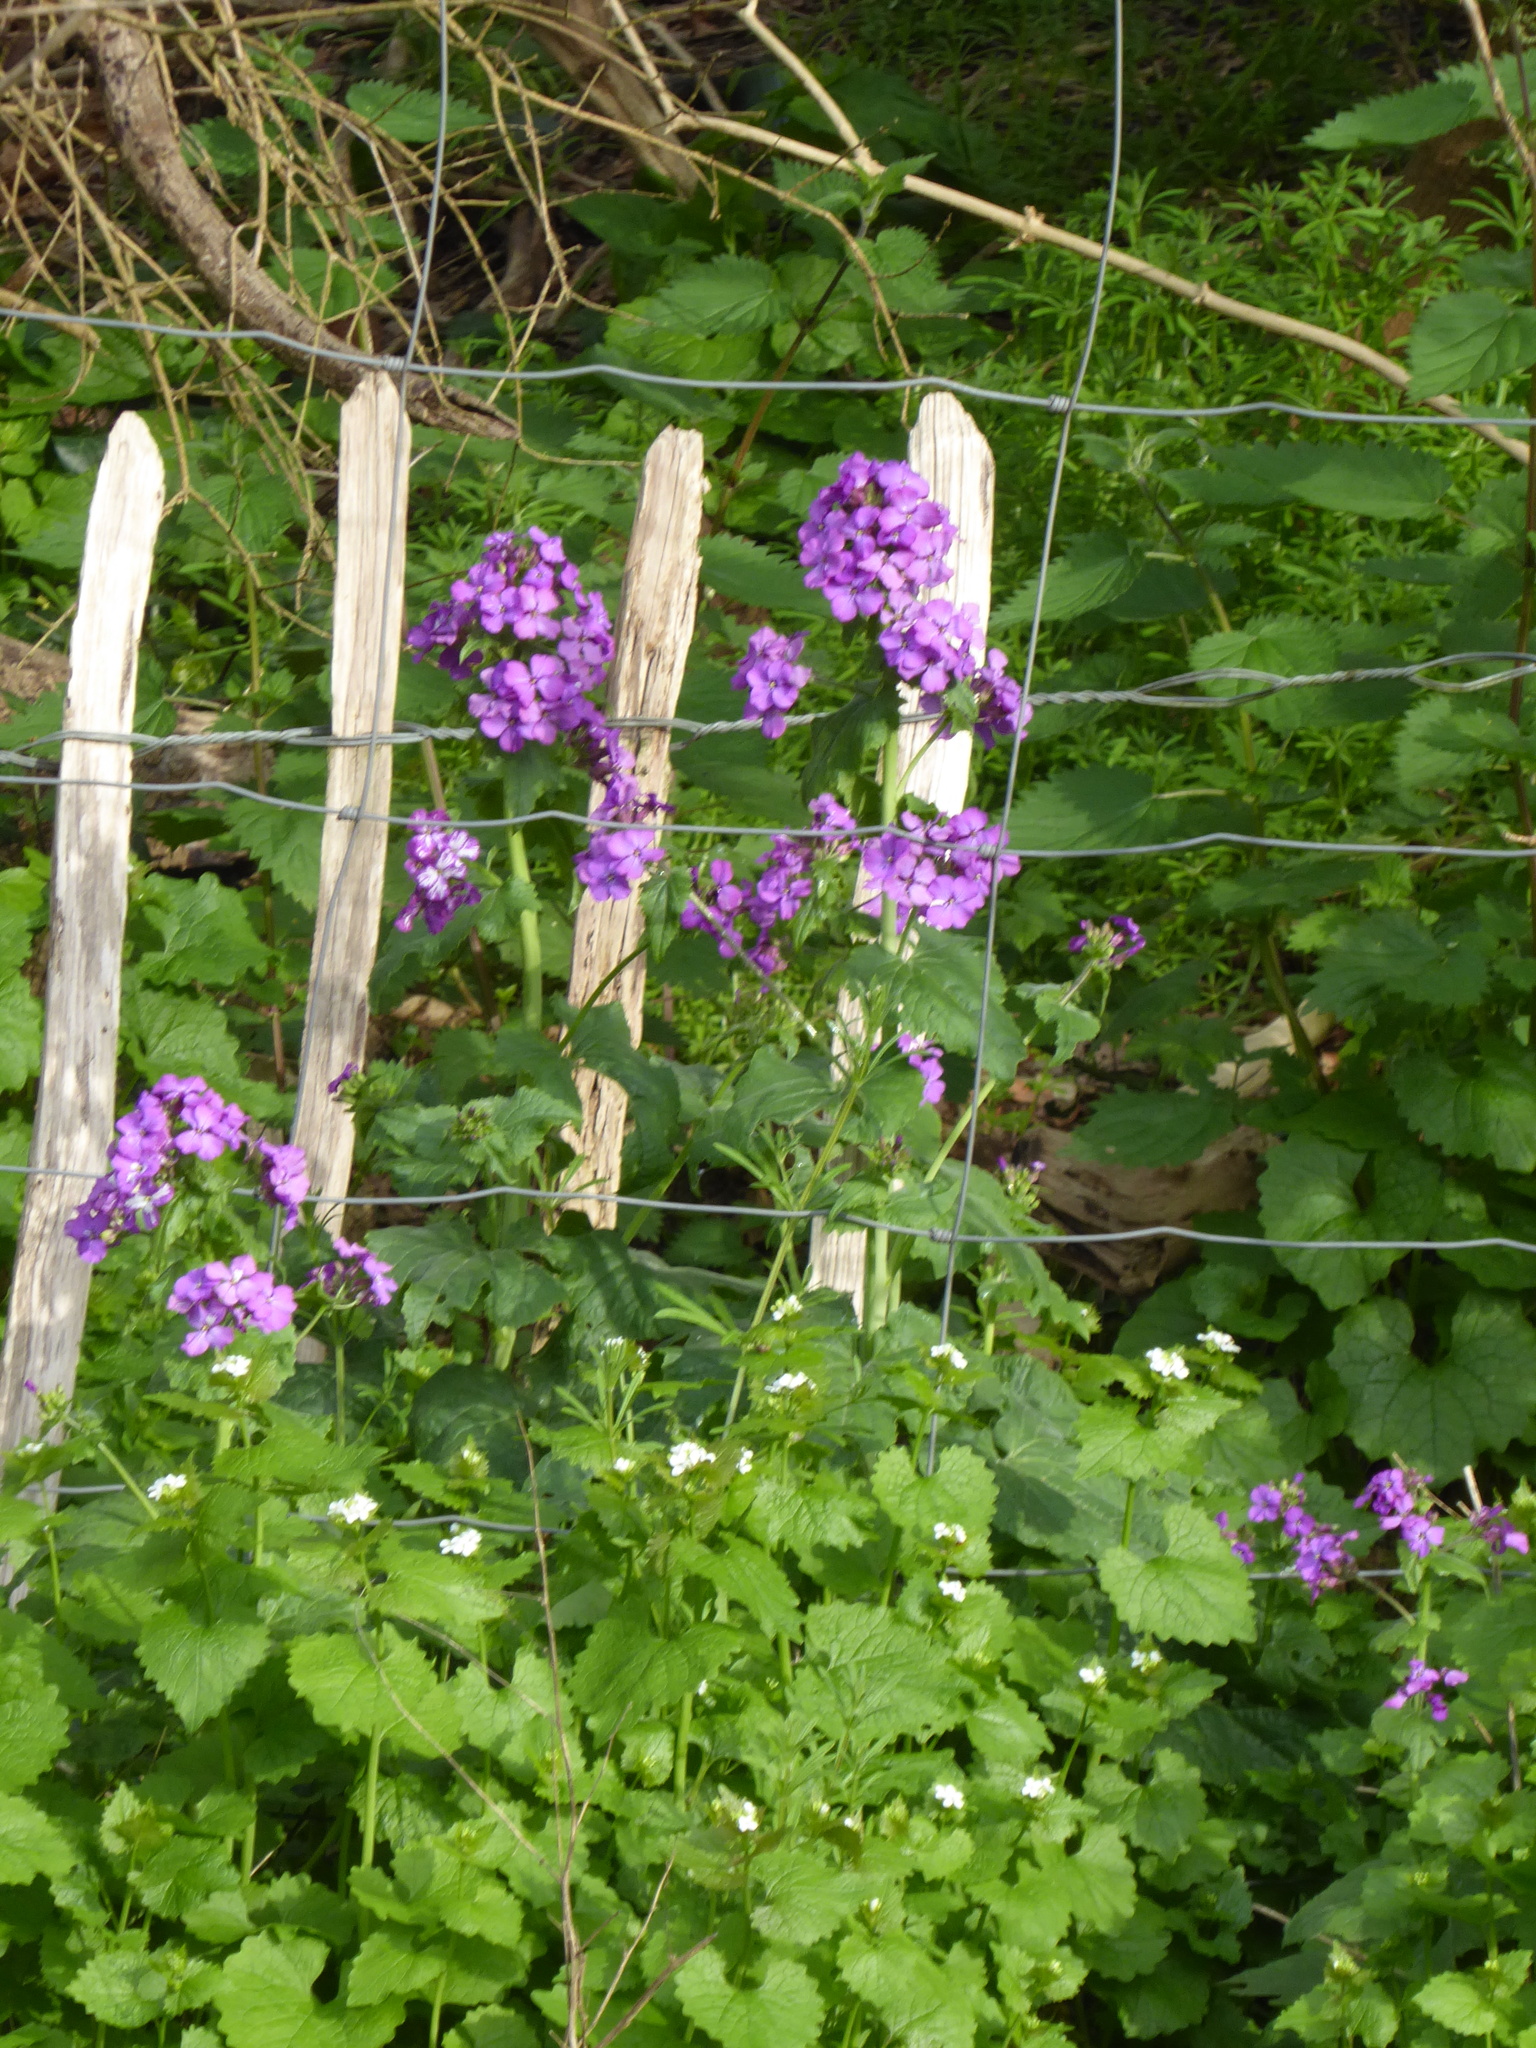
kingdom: Plantae
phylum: Tracheophyta
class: Magnoliopsida
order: Brassicales
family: Brassicaceae
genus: Lunaria
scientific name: Lunaria annua
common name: Honesty
